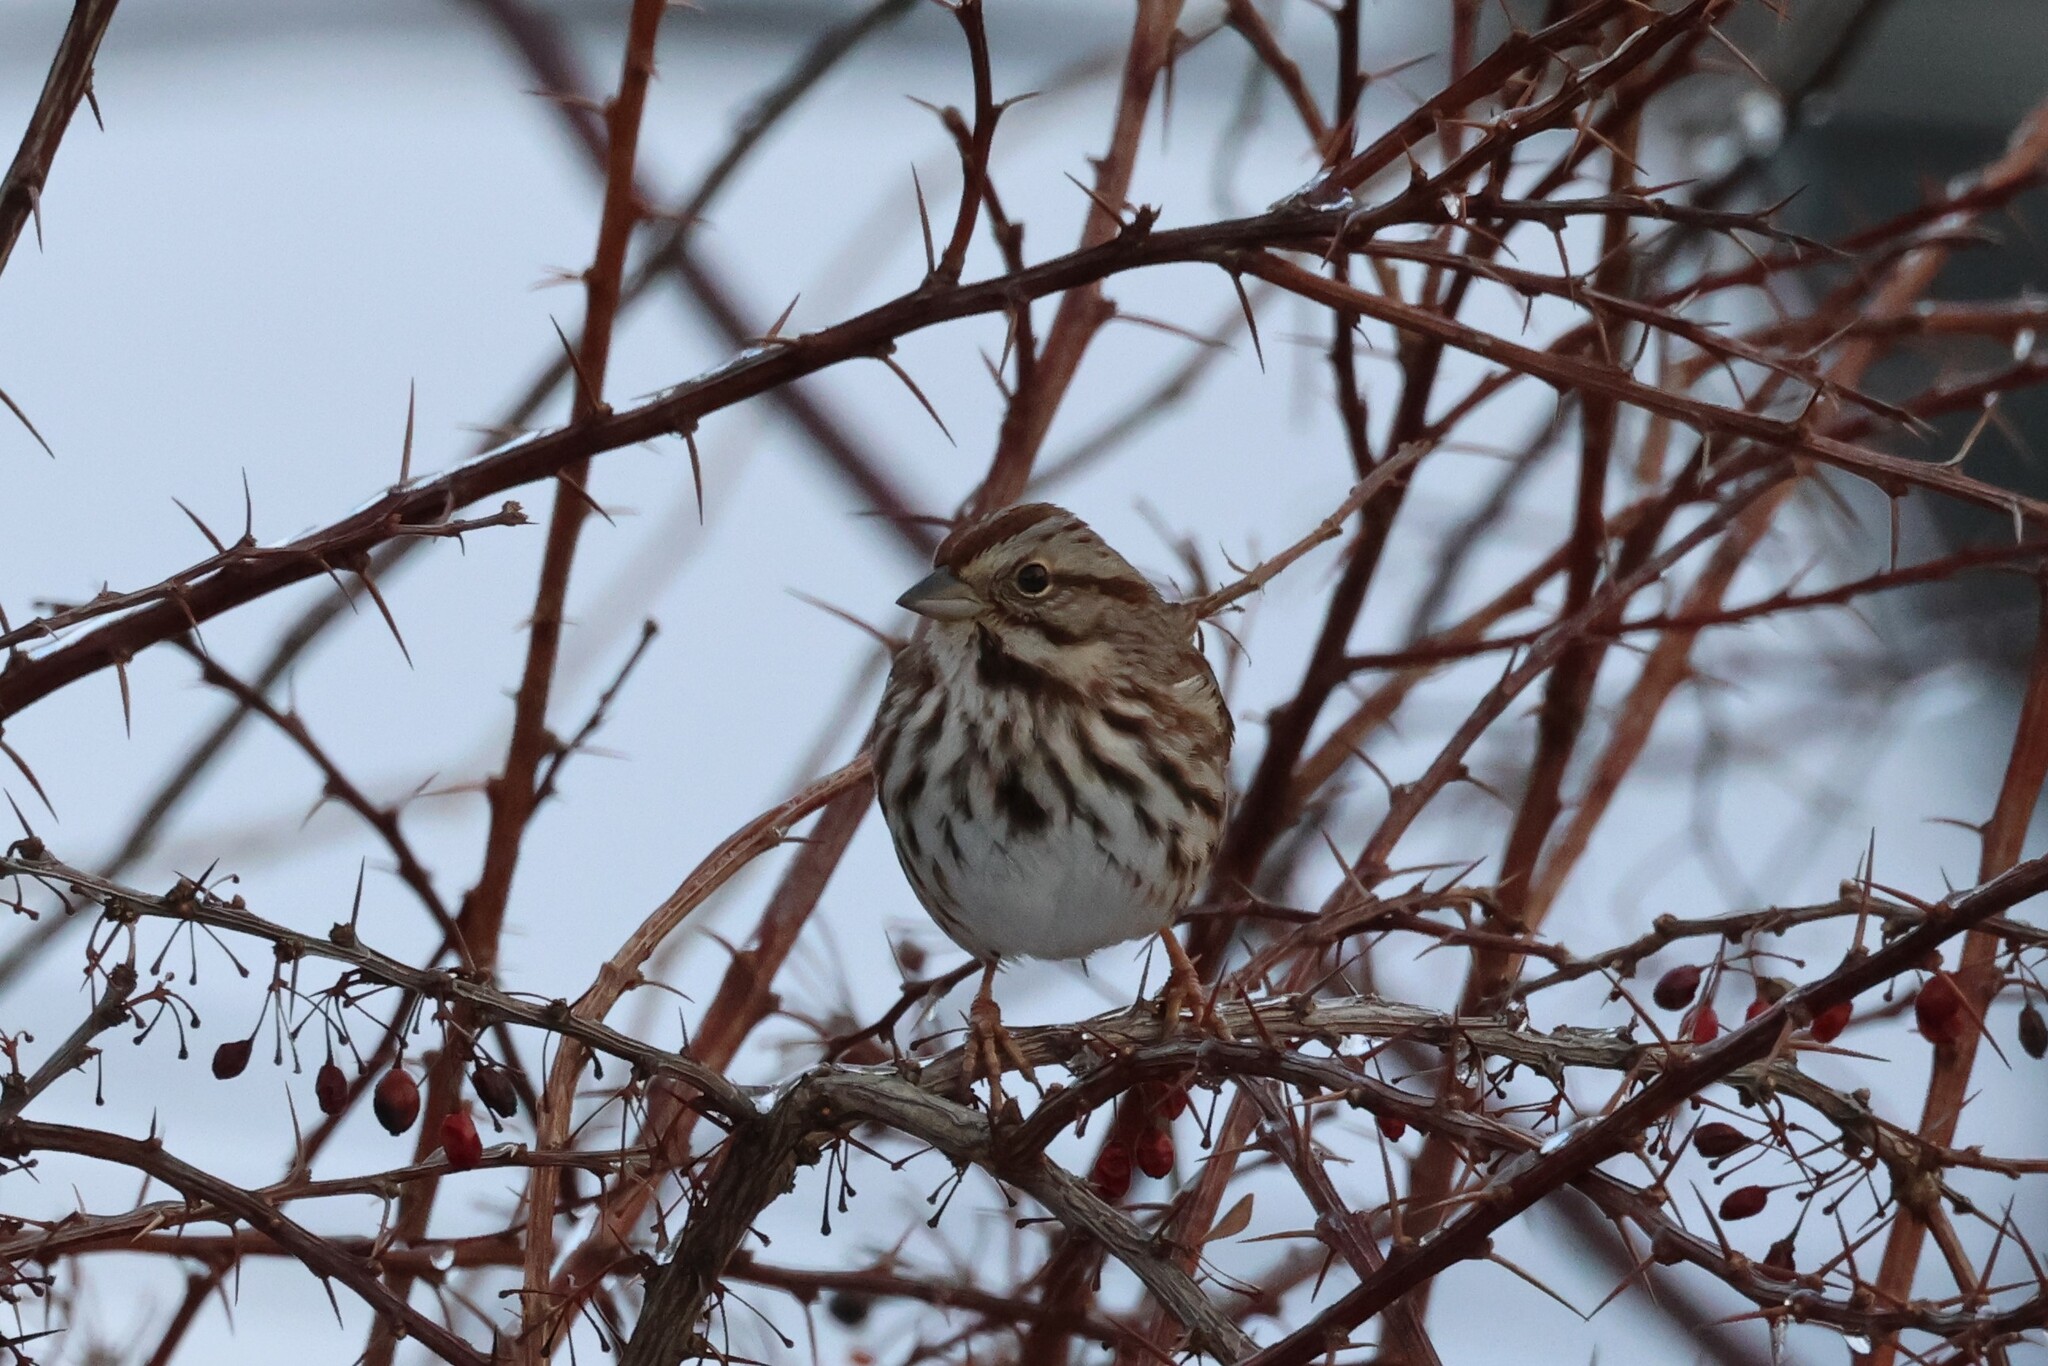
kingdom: Animalia
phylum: Chordata
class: Aves
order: Passeriformes
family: Passerellidae
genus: Melospiza
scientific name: Melospiza melodia
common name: Song sparrow
